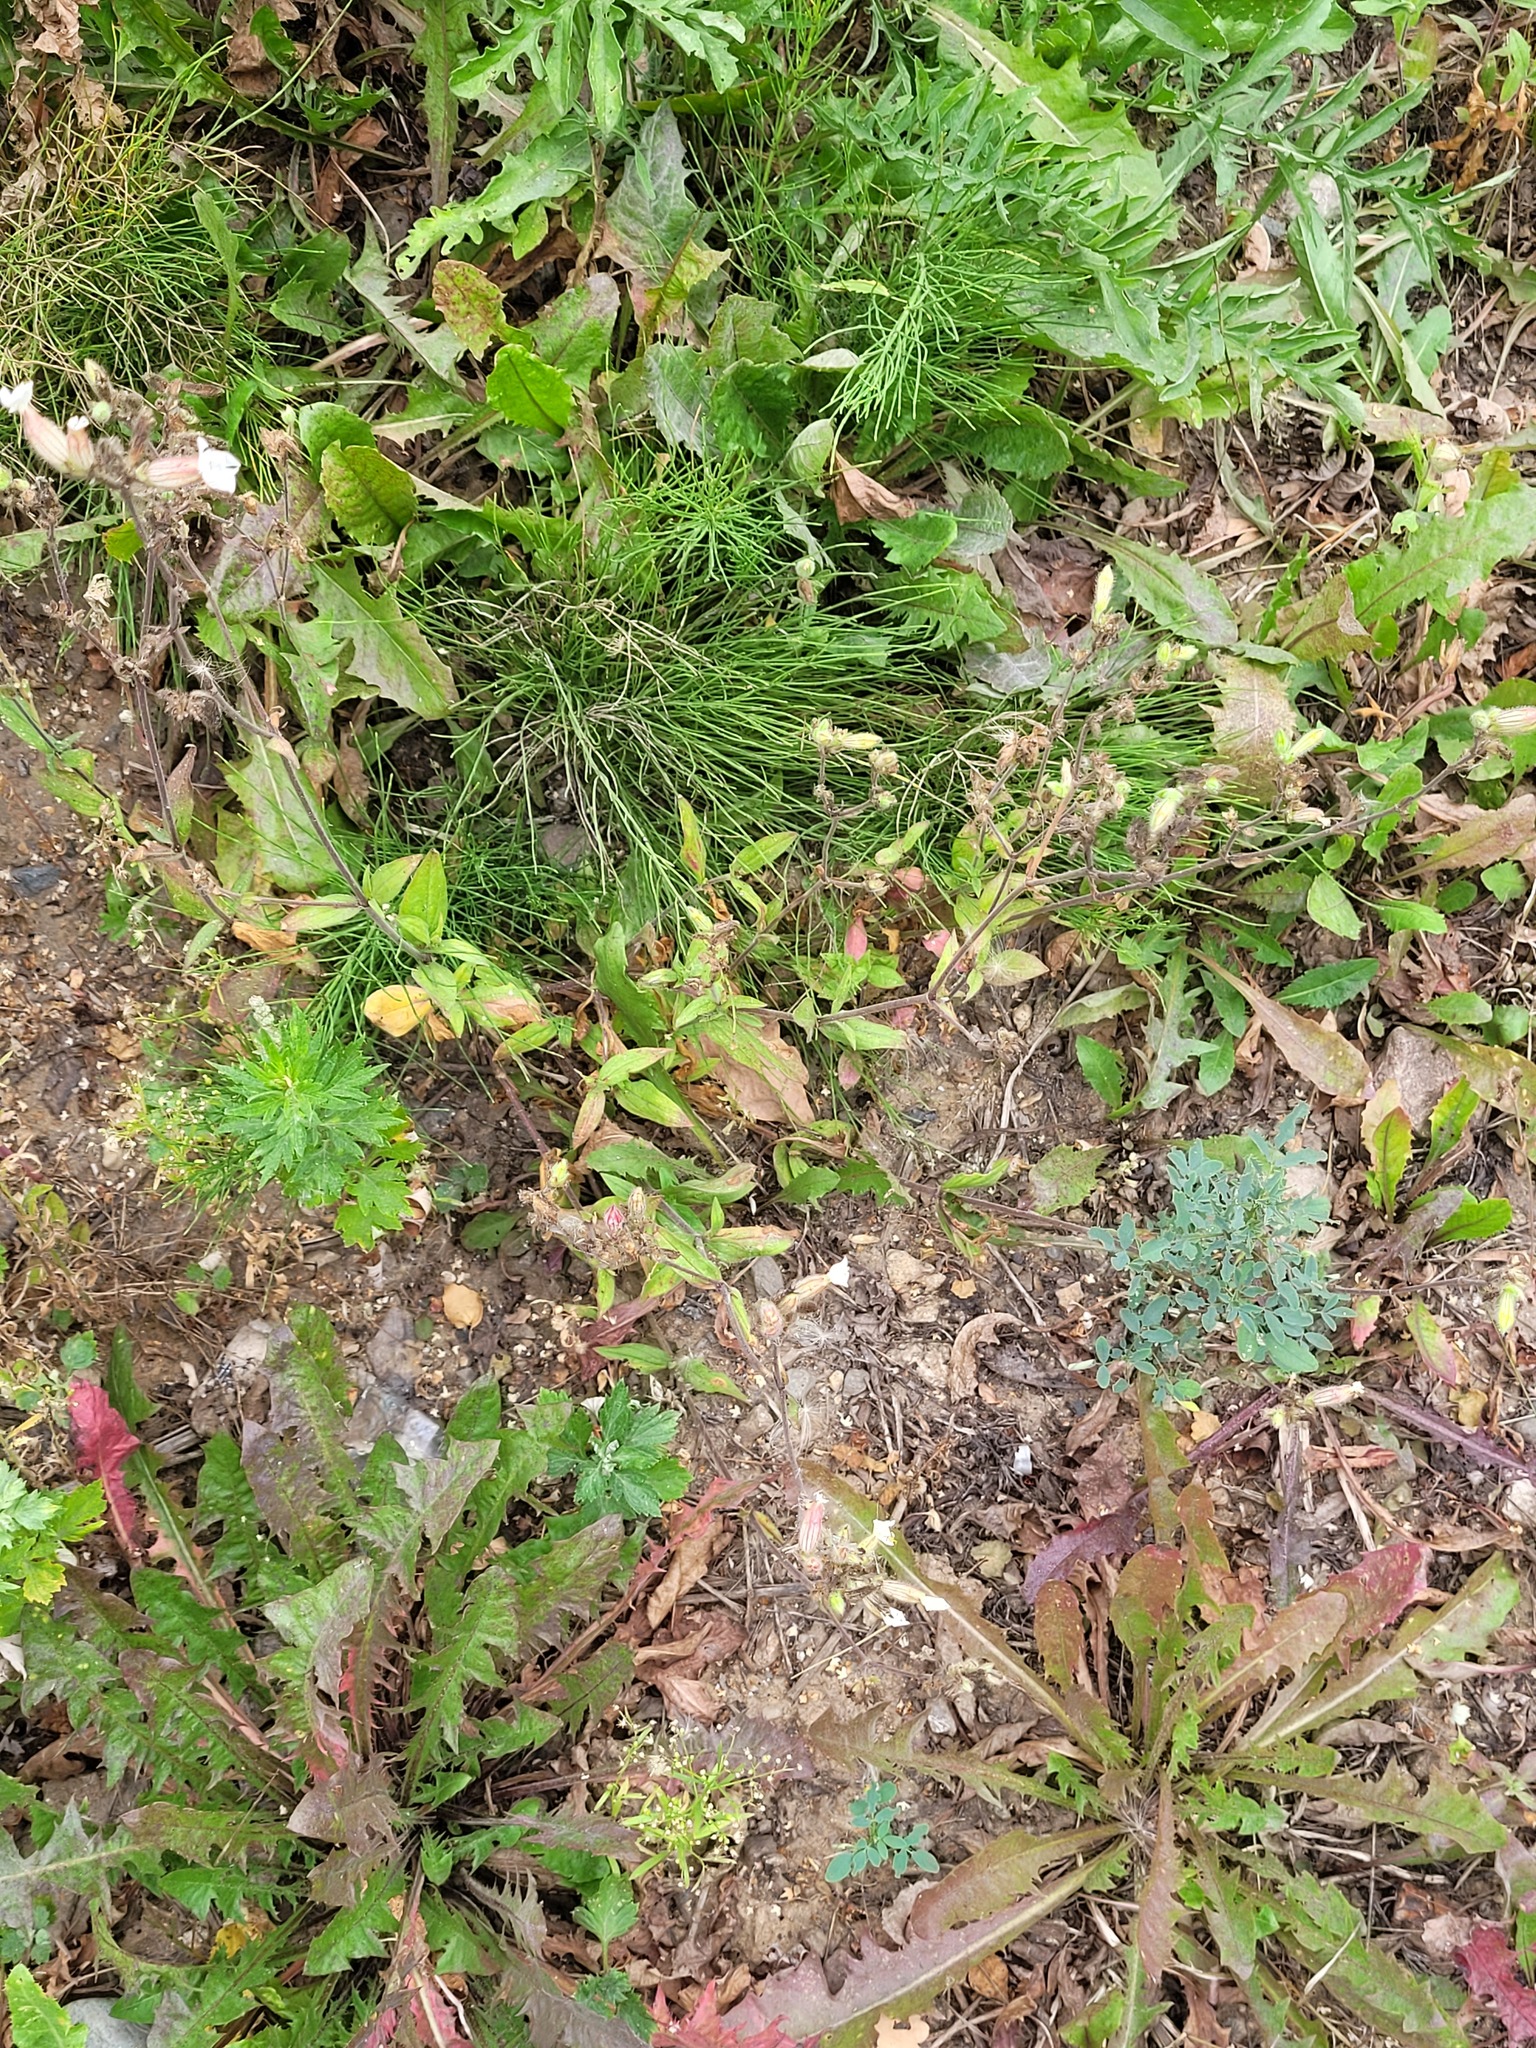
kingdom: Plantae
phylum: Tracheophyta
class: Magnoliopsida
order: Caryophyllales
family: Caryophyllaceae
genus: Silene
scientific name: Silene latifolia
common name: White campion
